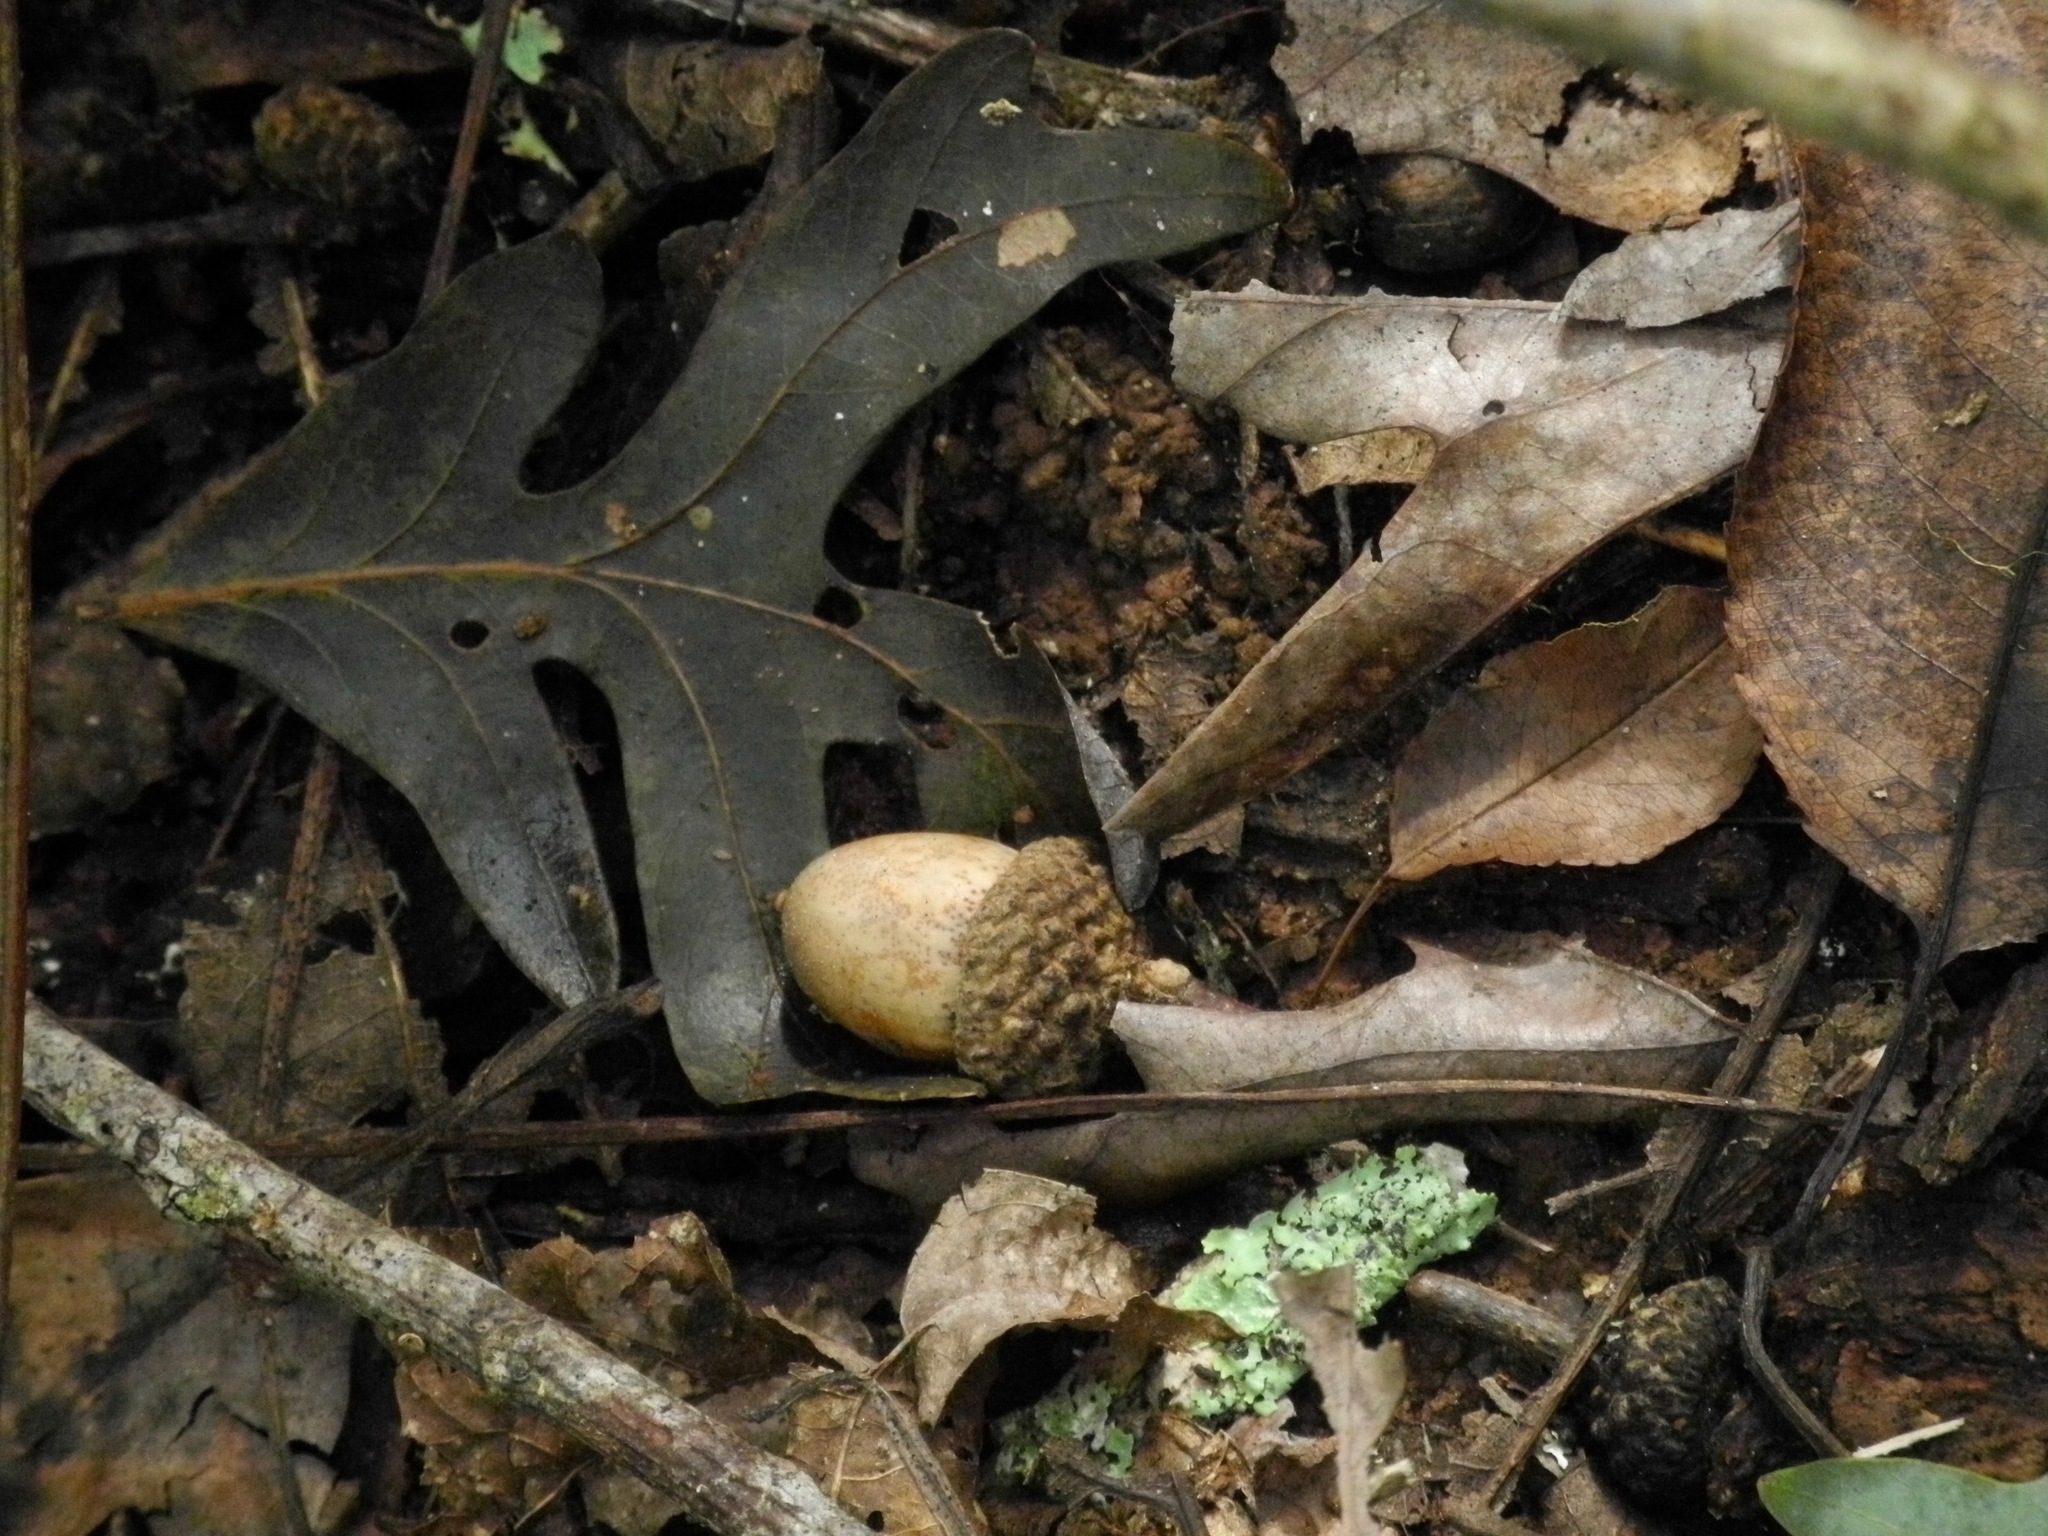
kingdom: Plantae
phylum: Tracheophyta
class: Magnoliopsida
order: Fagales
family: Fagaceae
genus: Quercus
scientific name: Quercus alba
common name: White oak
